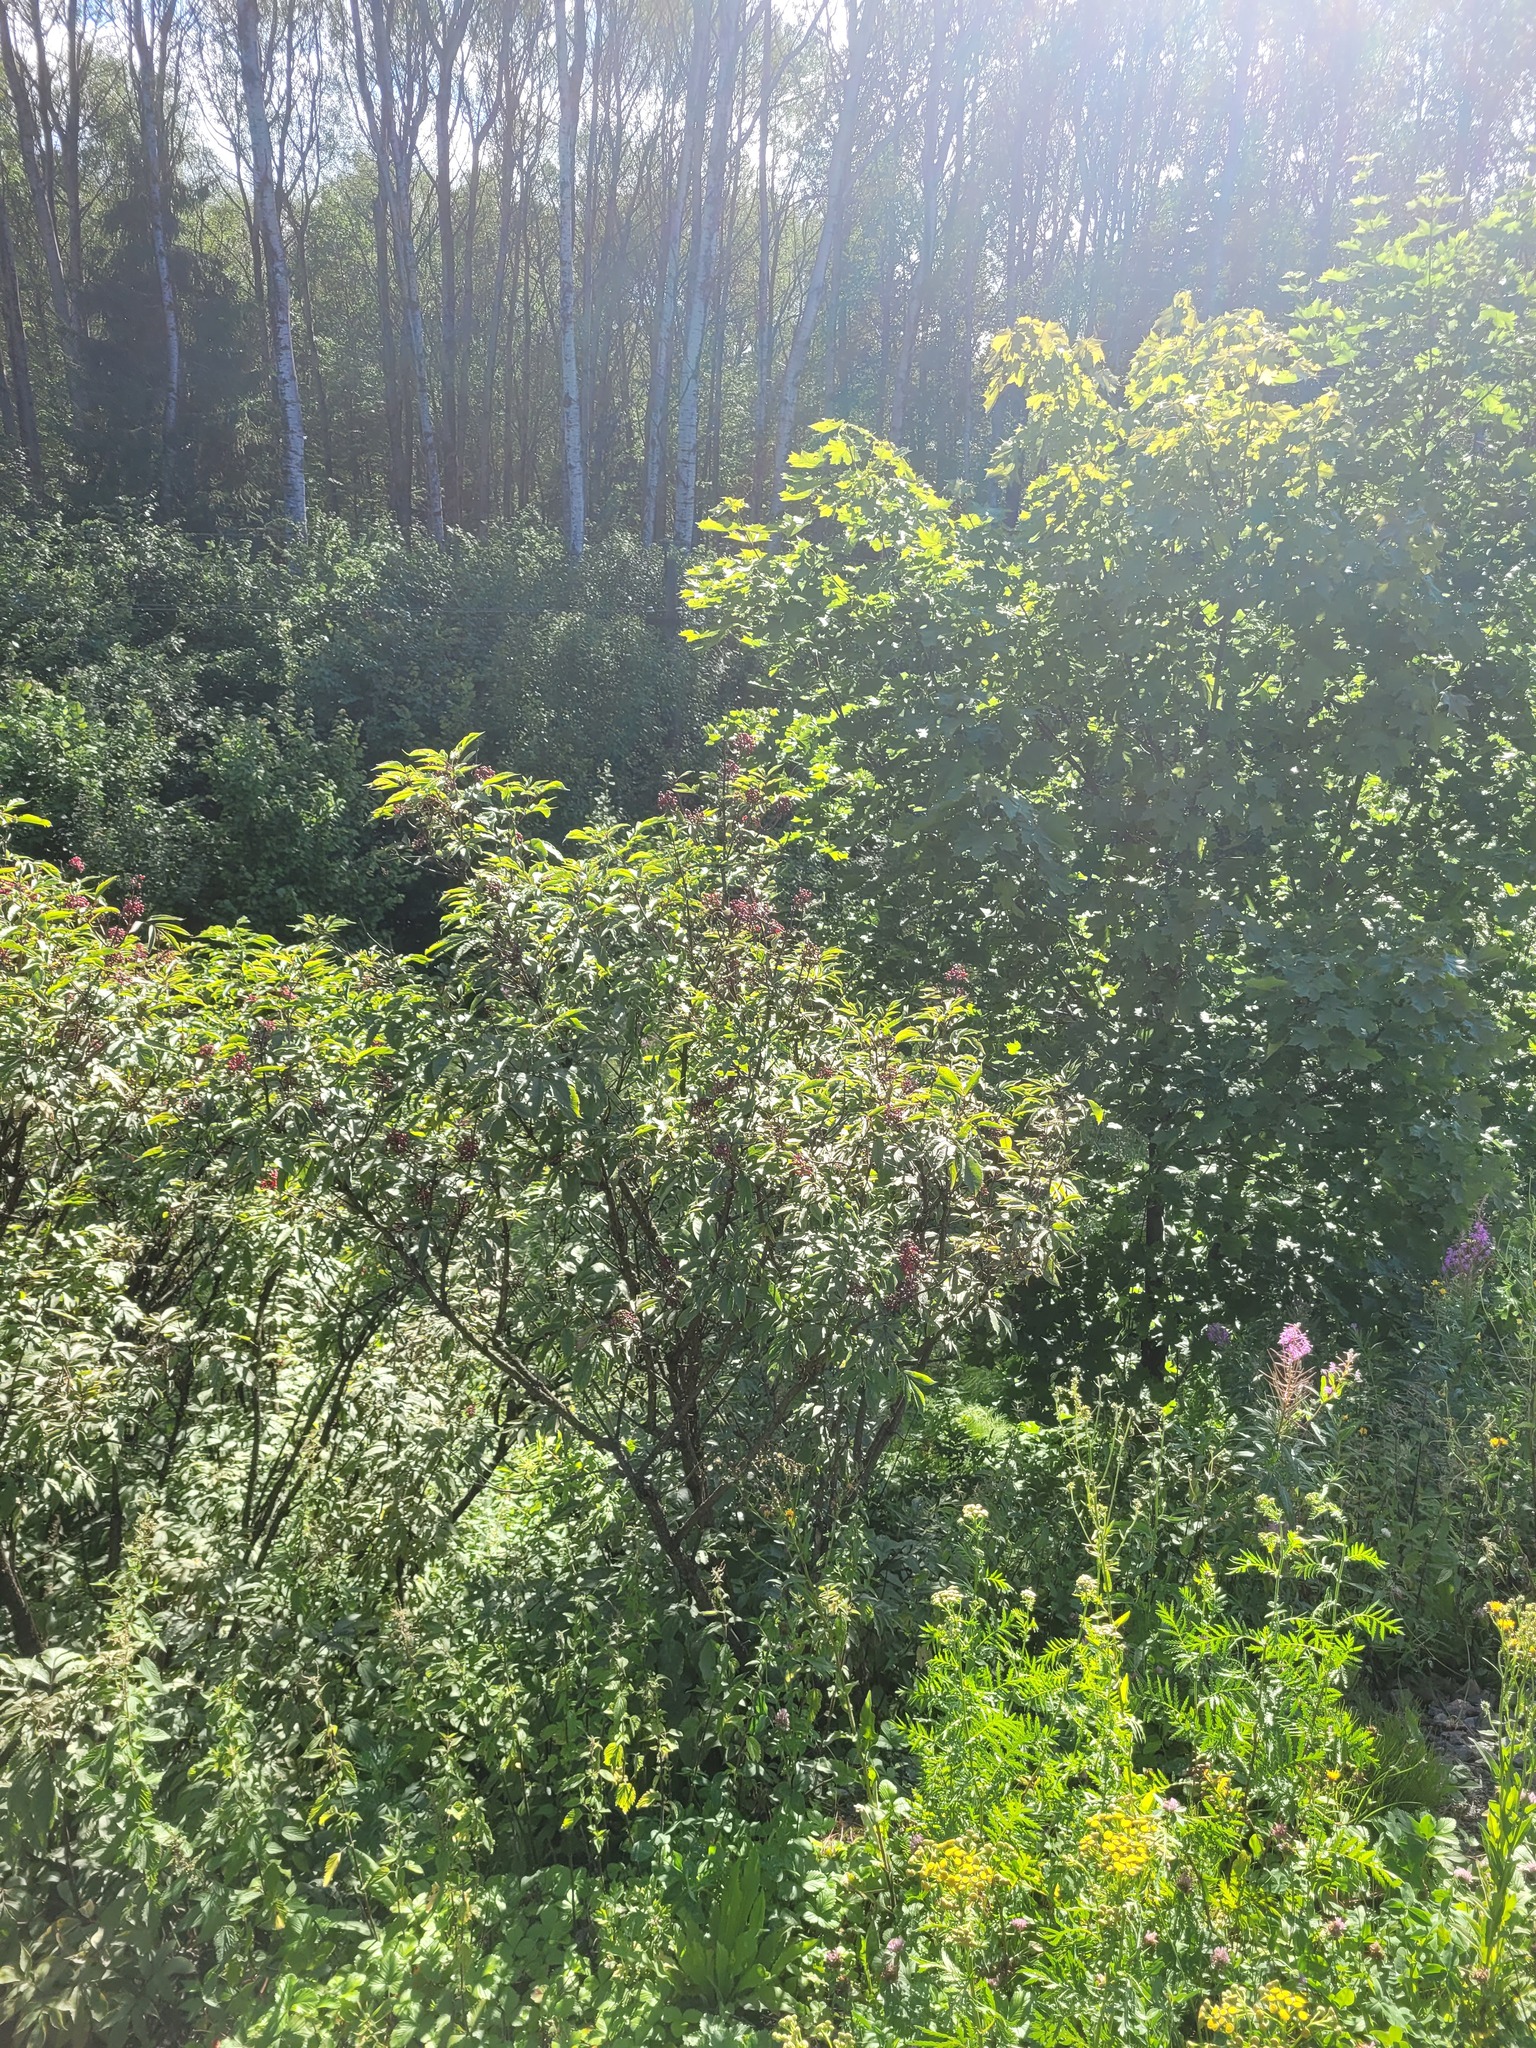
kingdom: Plantae
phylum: Tracheophyta
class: Magnoliopsida
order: Dipsacales
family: Viburnaceae
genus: Sambucus
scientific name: Sambucus racemosa
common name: Red-berried elder
